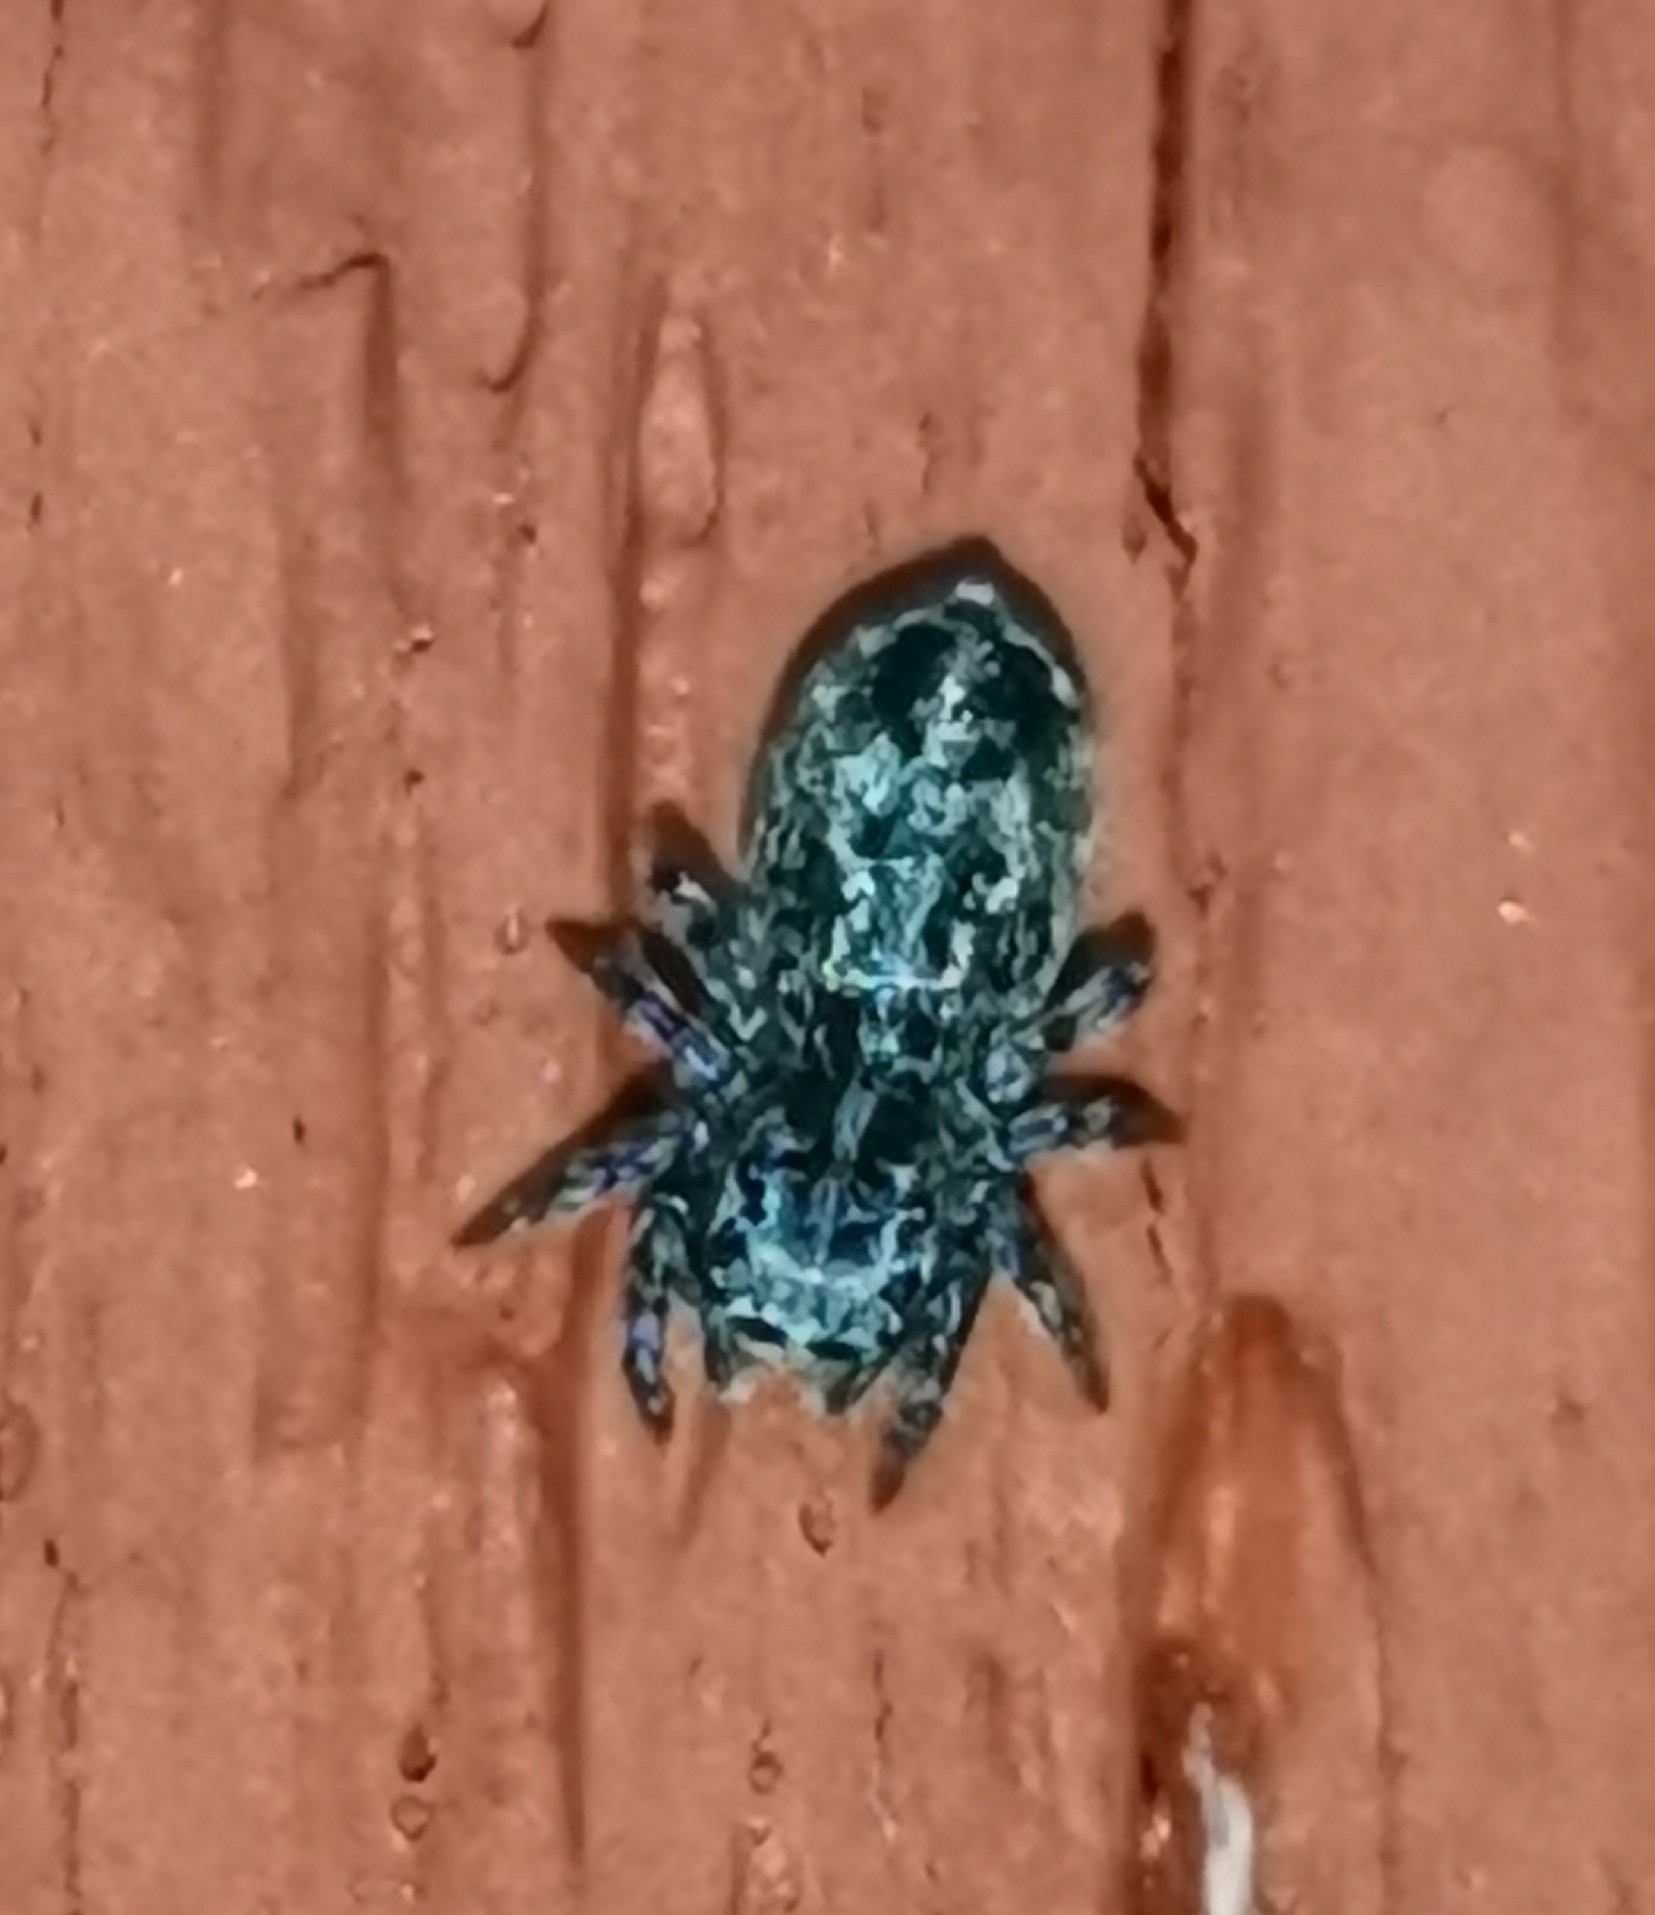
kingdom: Animalia
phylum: Arthropoda
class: Arachnida
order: Araneae
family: Salticidae
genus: Attulus
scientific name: Attulus terebratus
